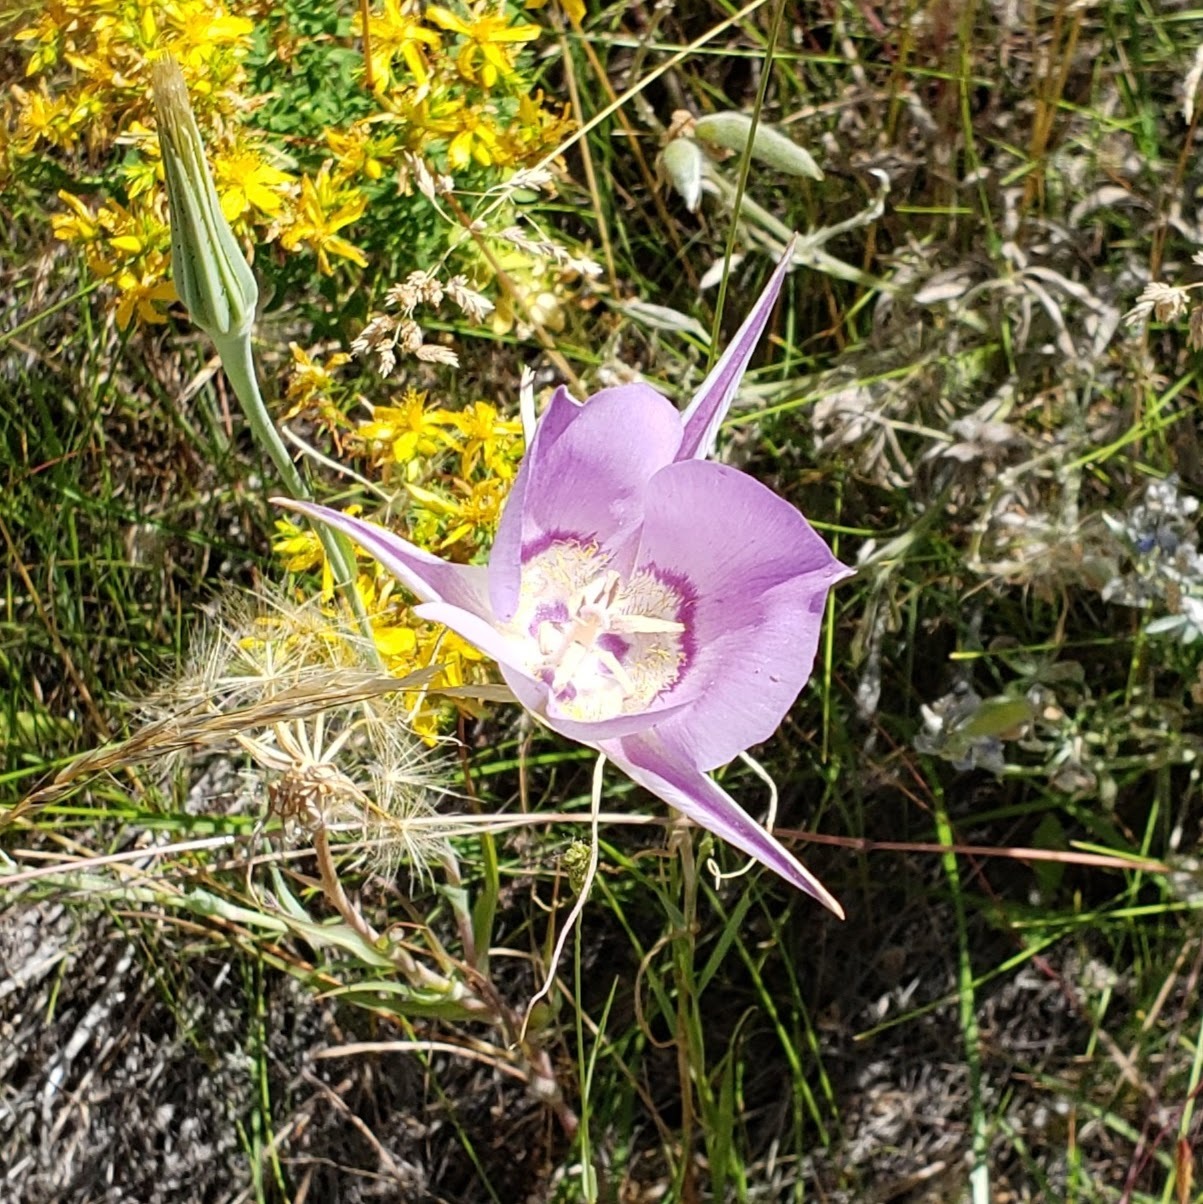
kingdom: Plantae
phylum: Tracheophyta
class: Liliopsida
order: Liliales
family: Liliaceae
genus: Calochortus
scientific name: Calochortus macrocarpus
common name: Green-band mariposa lily
